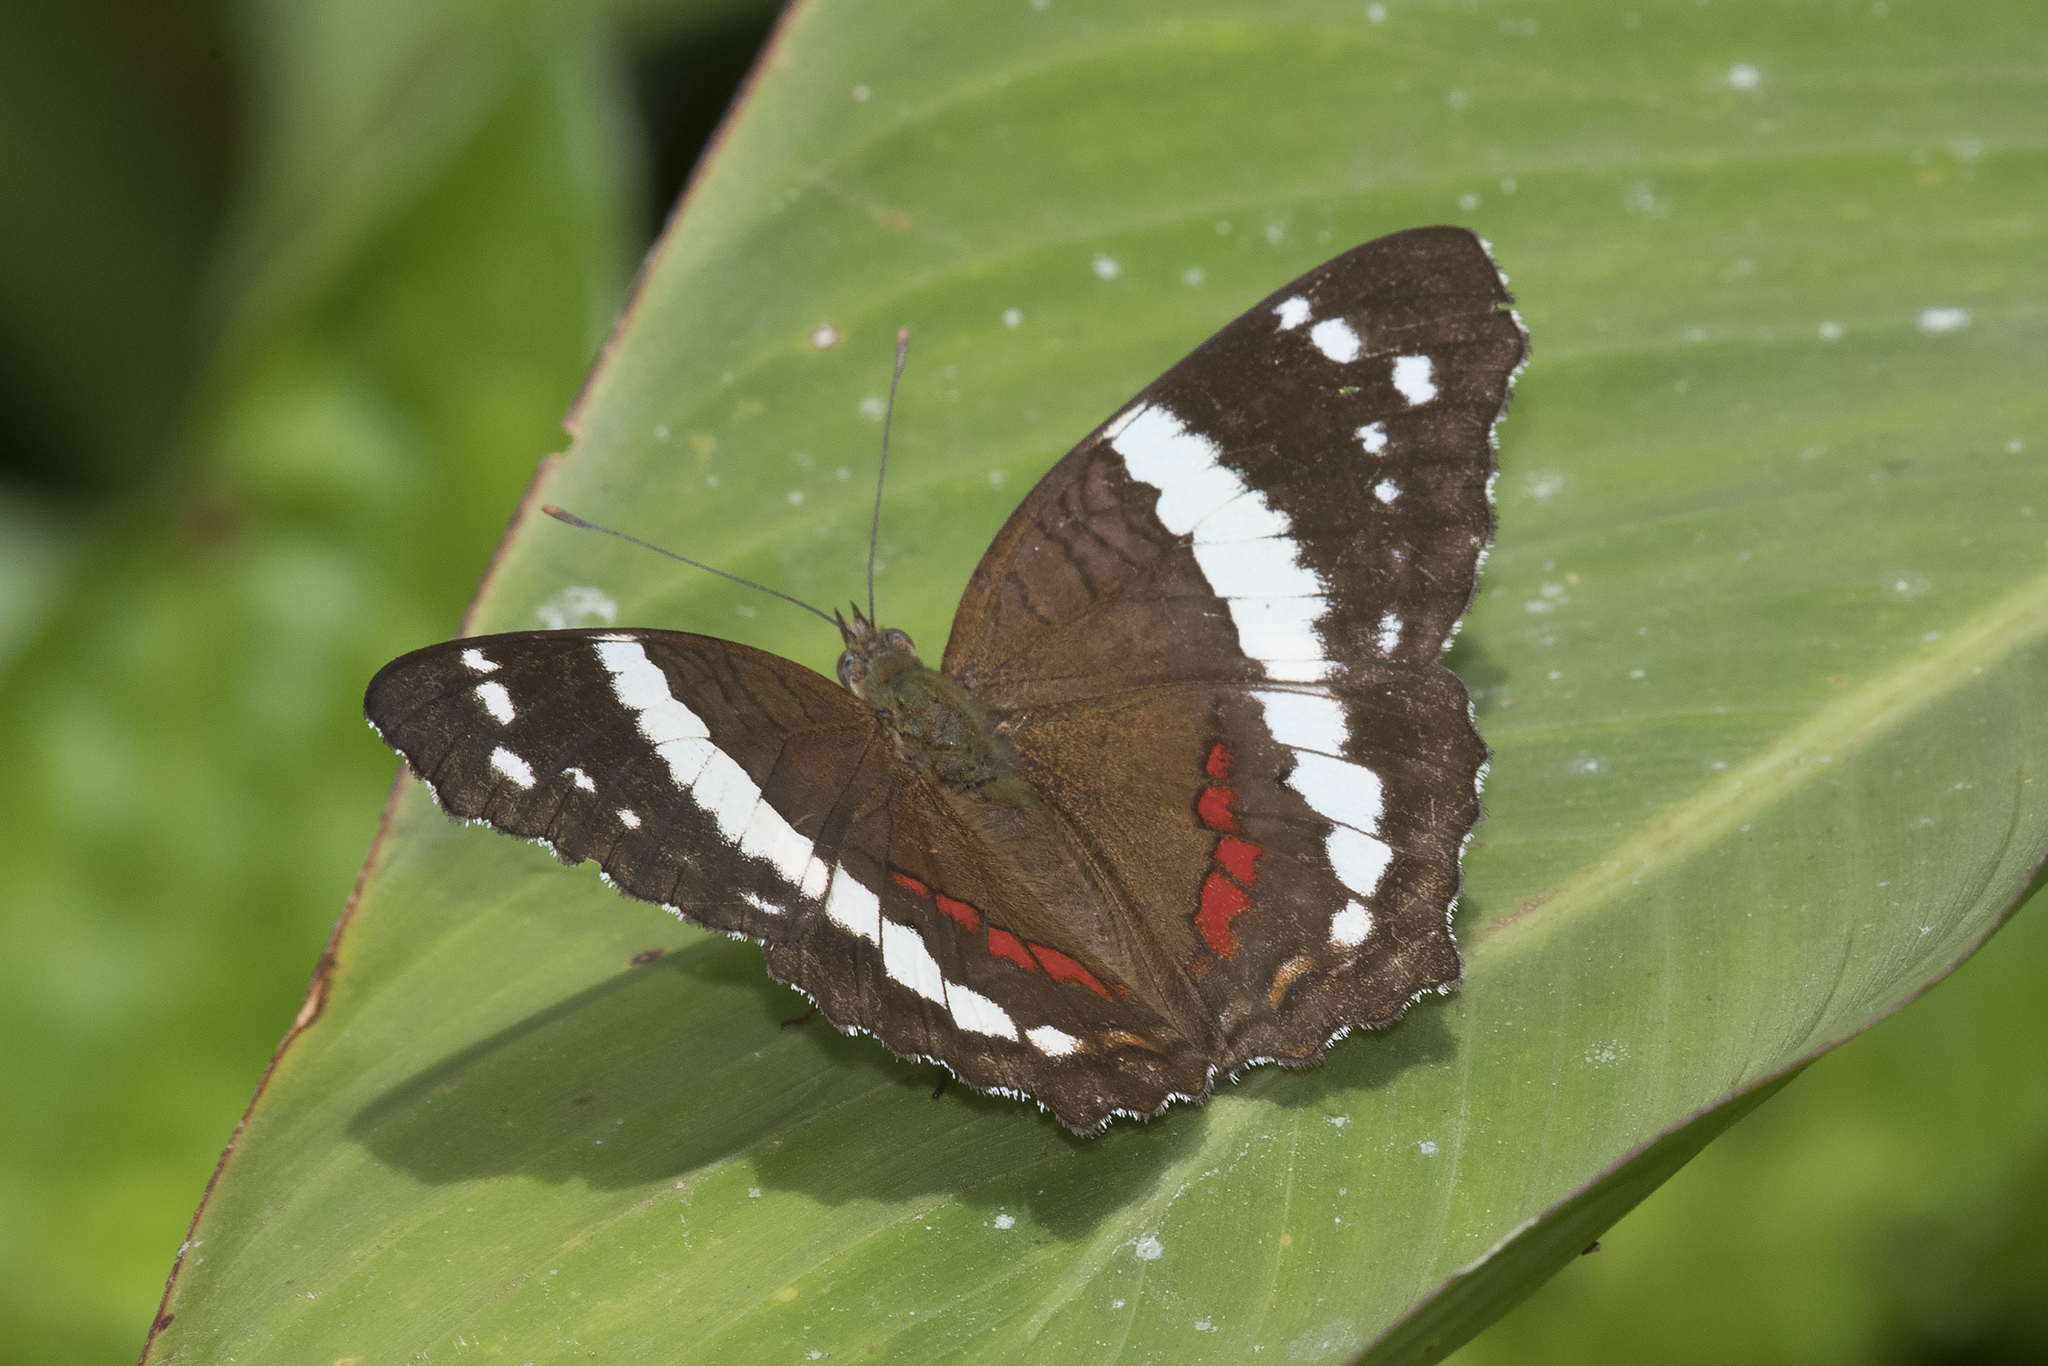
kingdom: Animalia
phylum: Arthropoda
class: Insecta
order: Lepidoptera
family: Nymphalidae
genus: Anartia
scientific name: Anartia fatima
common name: Banded peacock
